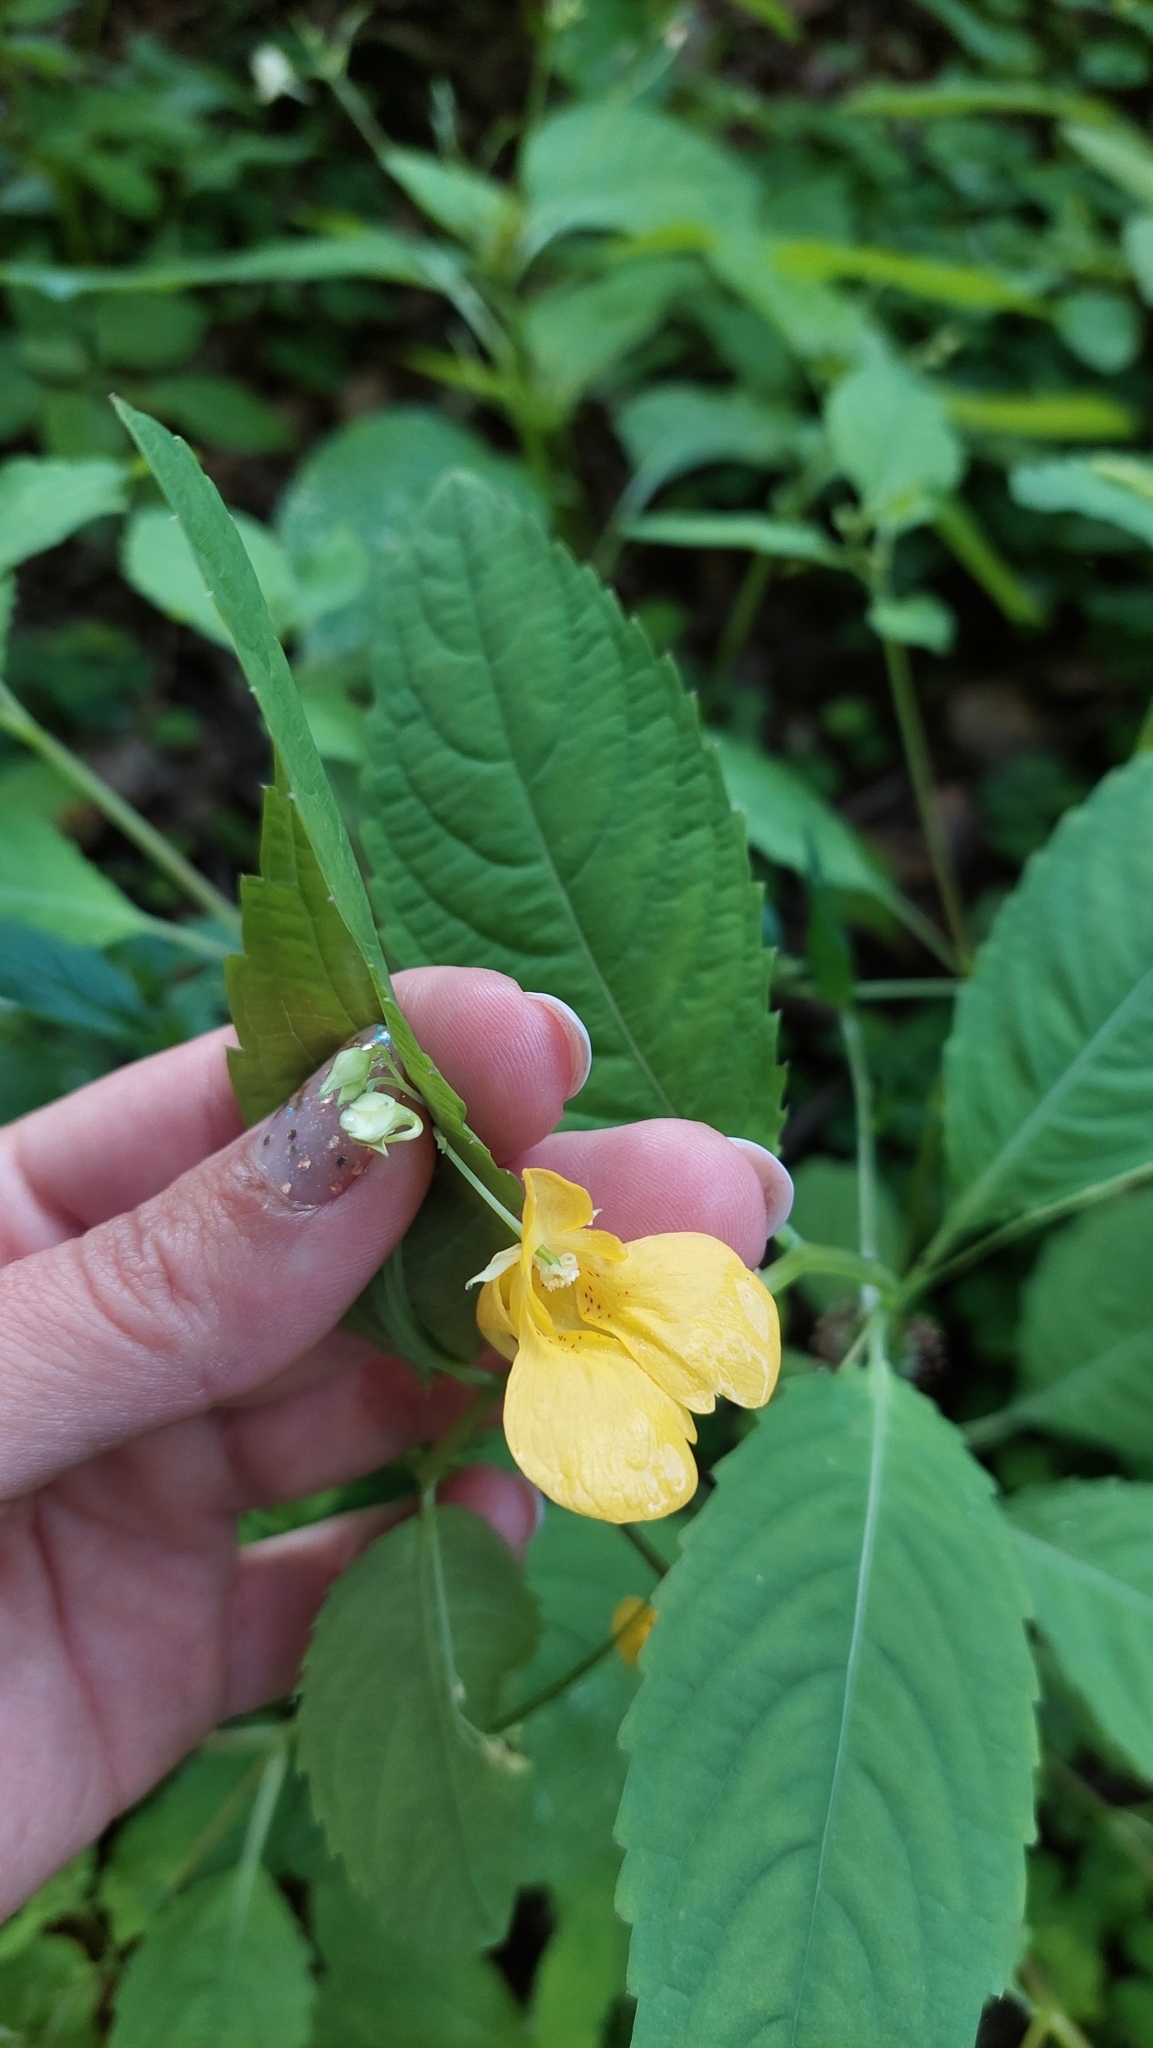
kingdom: Plantae
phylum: Tracheophyta
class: Magnoliopsida
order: Ericales
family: Balsaminaceae
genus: Impatiens
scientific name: Impatiens noli-tangere
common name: Touch-me-not balsam
